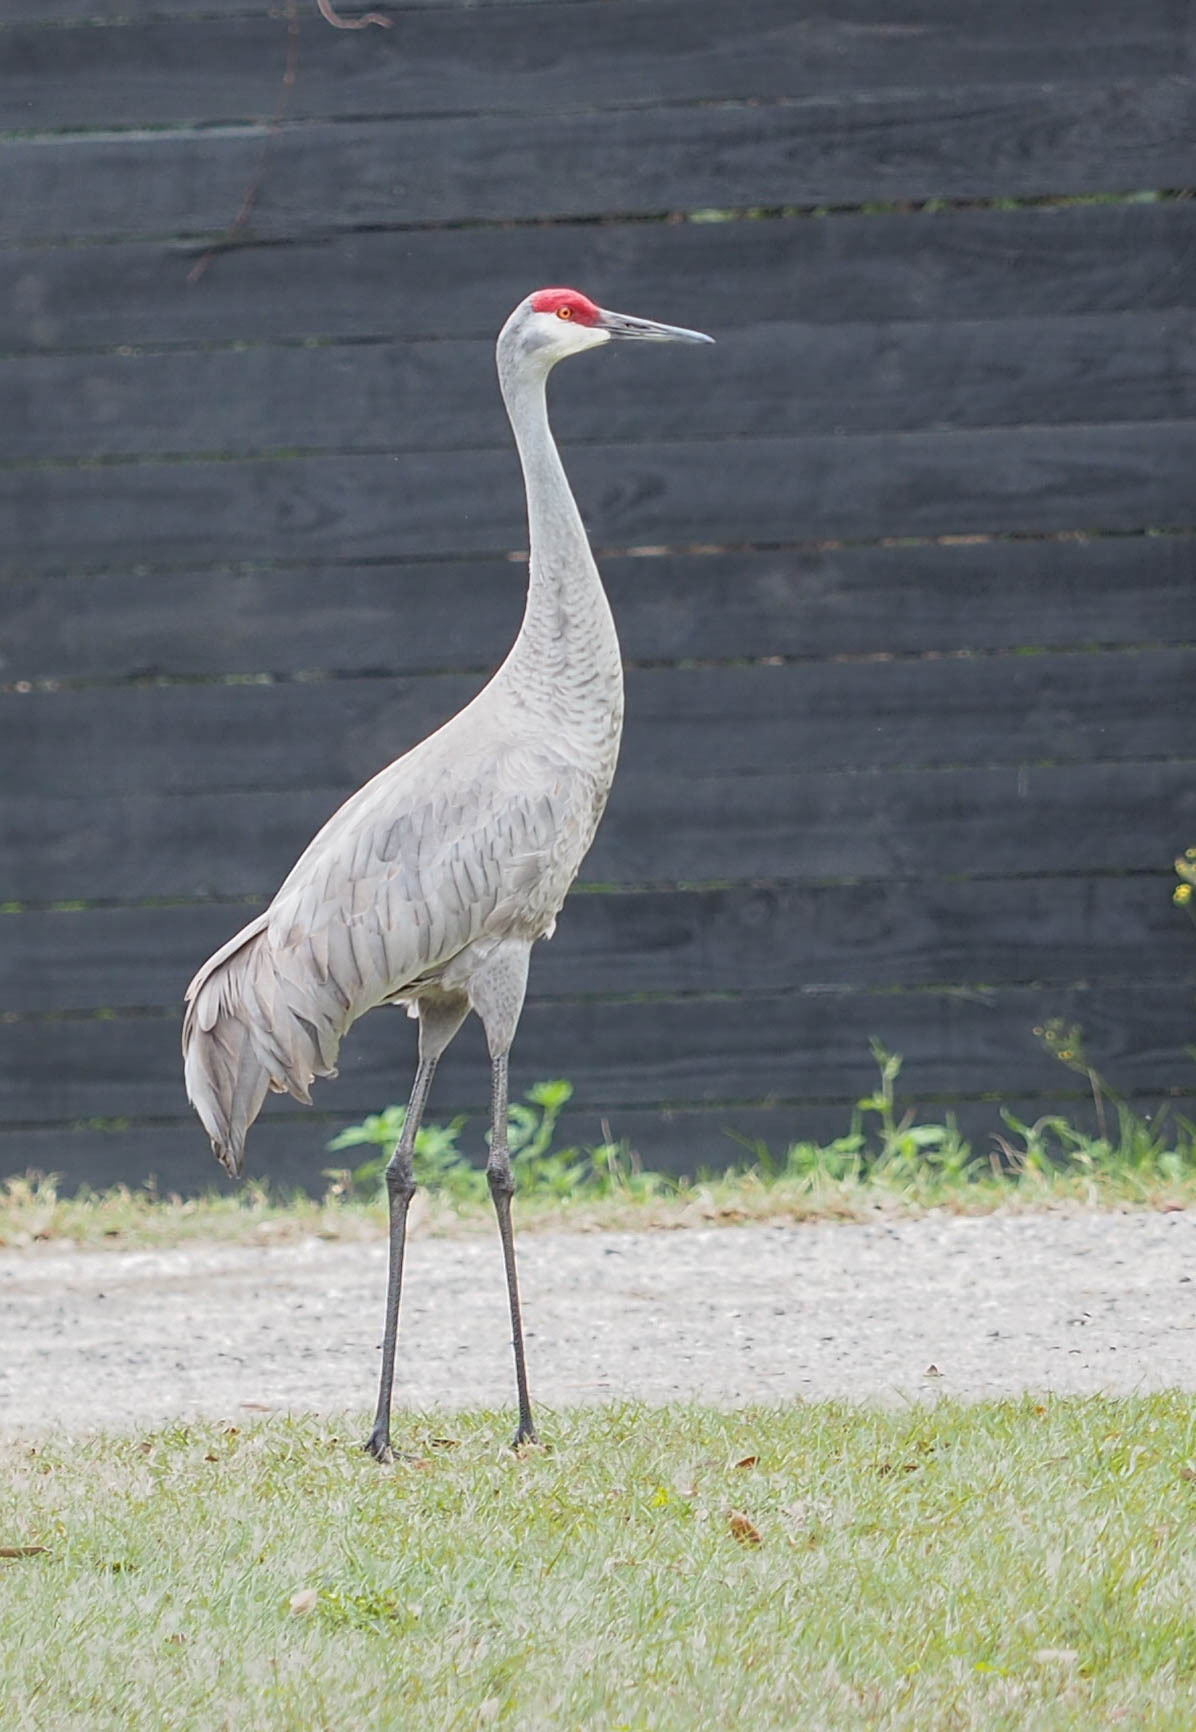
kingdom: Animalia
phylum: Chordata
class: Aves
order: Gruiformes
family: Gruidae
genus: Grus
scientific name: Grus canadensis
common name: Sandhill crane
